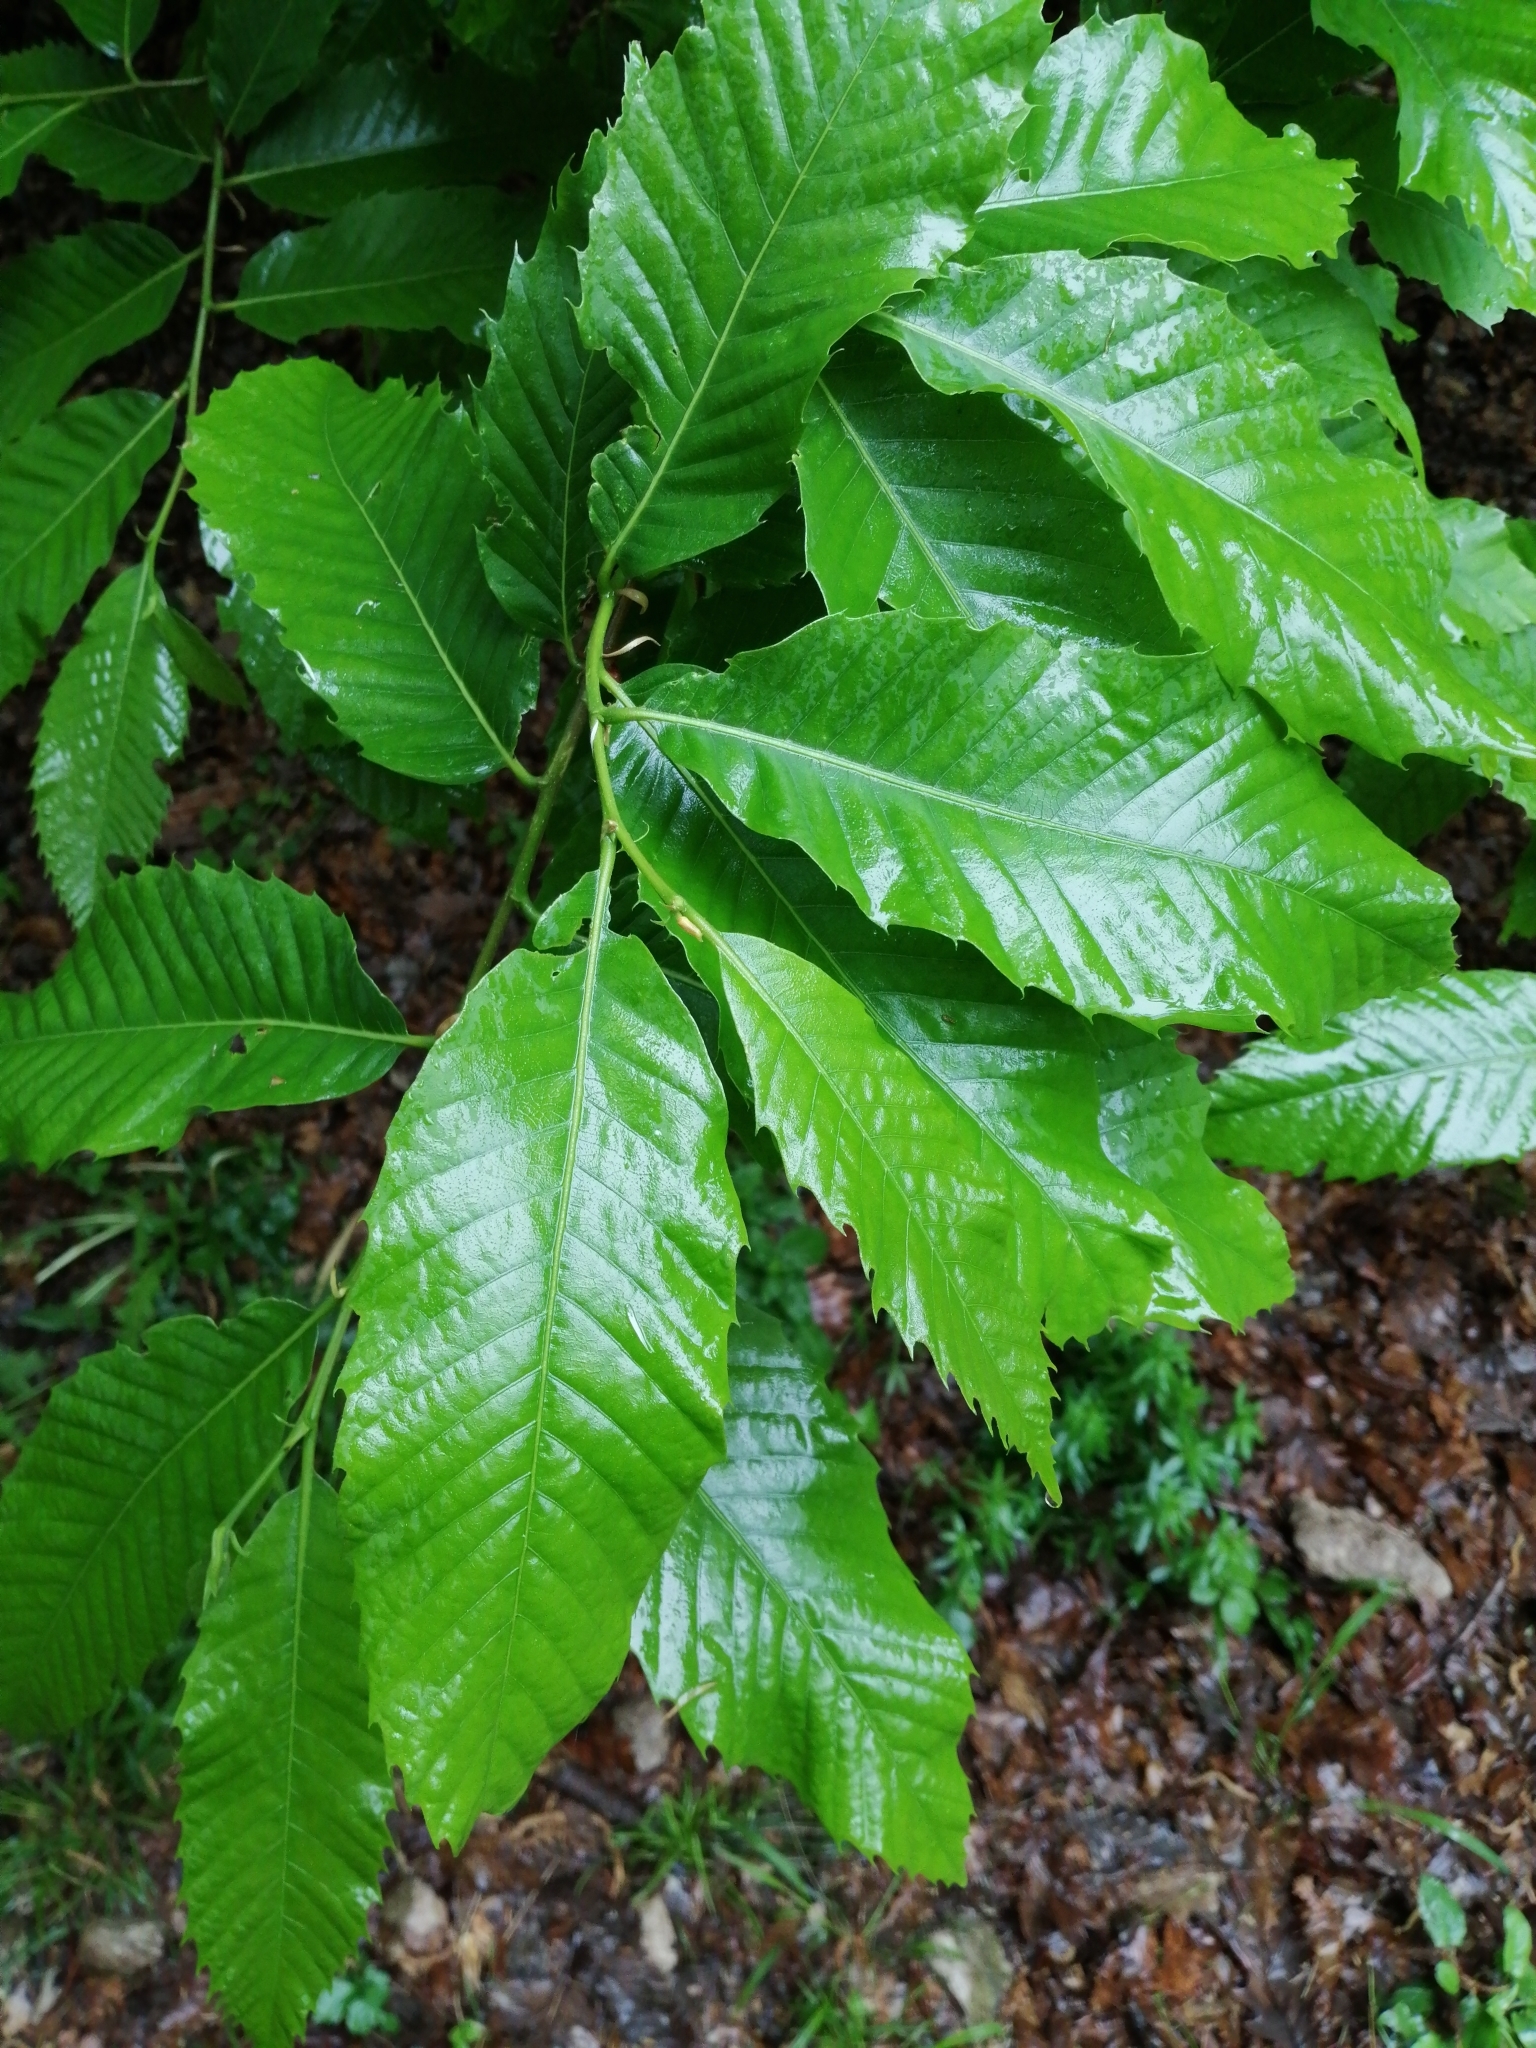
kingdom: Plantae
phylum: Tracheophyta
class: Magnoliopsida
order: Fagales
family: Fagaceae
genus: Castanea
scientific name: Castanea sativa
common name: Sweet chestnut
